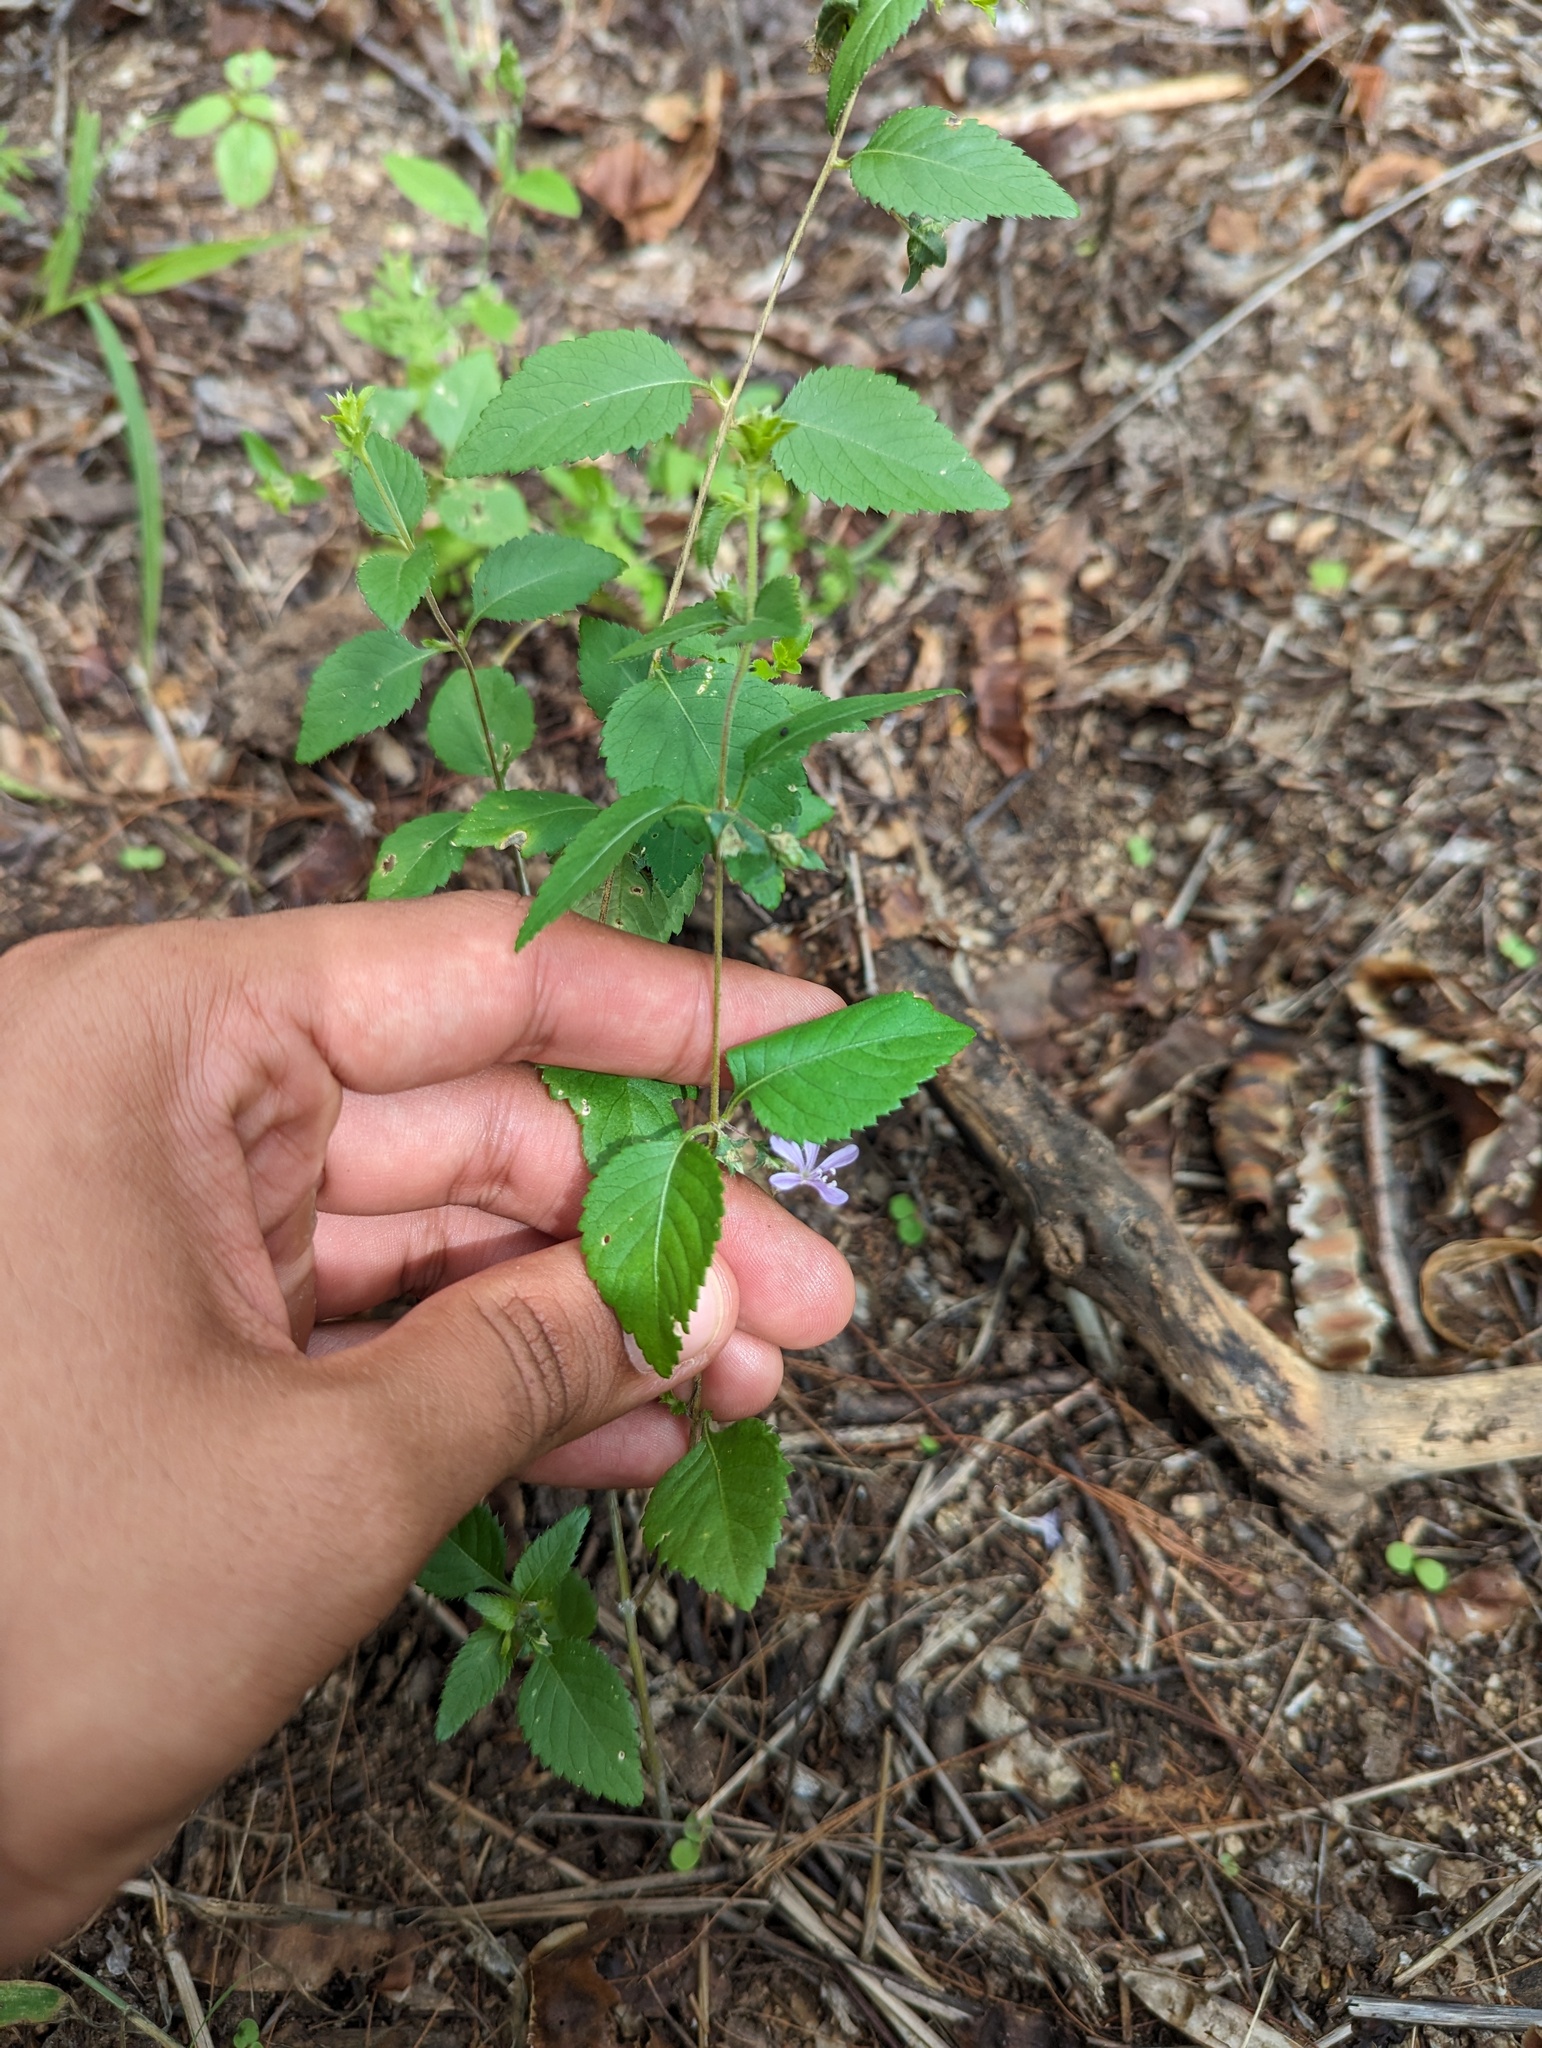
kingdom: Plantae
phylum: Tracheophyta
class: Magnoliopsida
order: Ericales
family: Polemoniaceae
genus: Loeselia
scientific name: Loeselia ciliata
